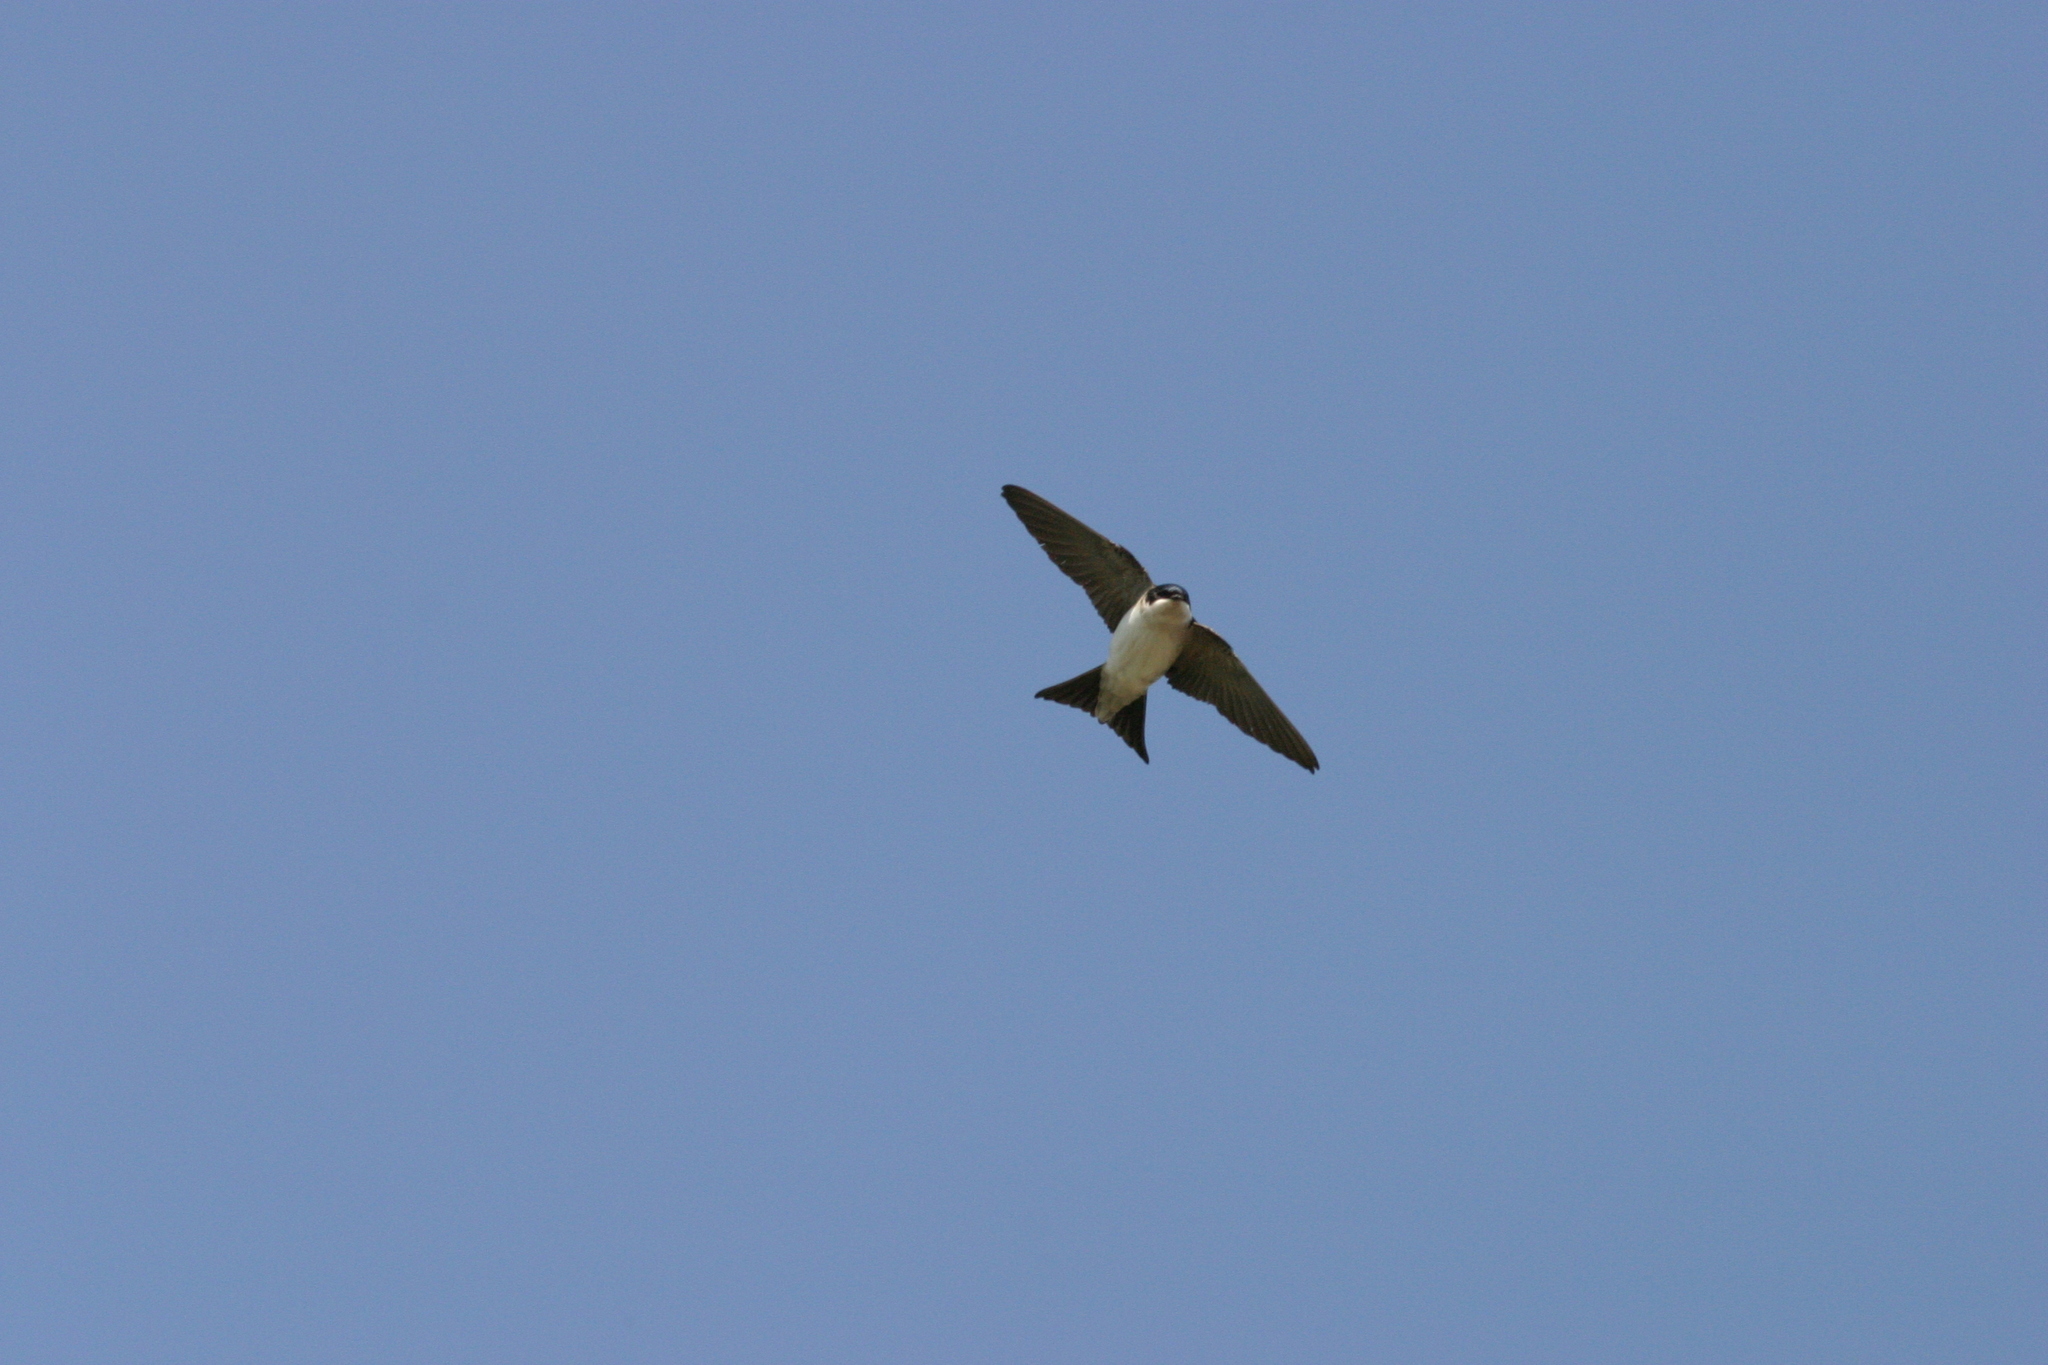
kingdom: Animalia
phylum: Chordata
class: Aves
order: Passeriformes
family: Hirundinidae
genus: Delichon
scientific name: Delichon urbicum
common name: Common house martin
